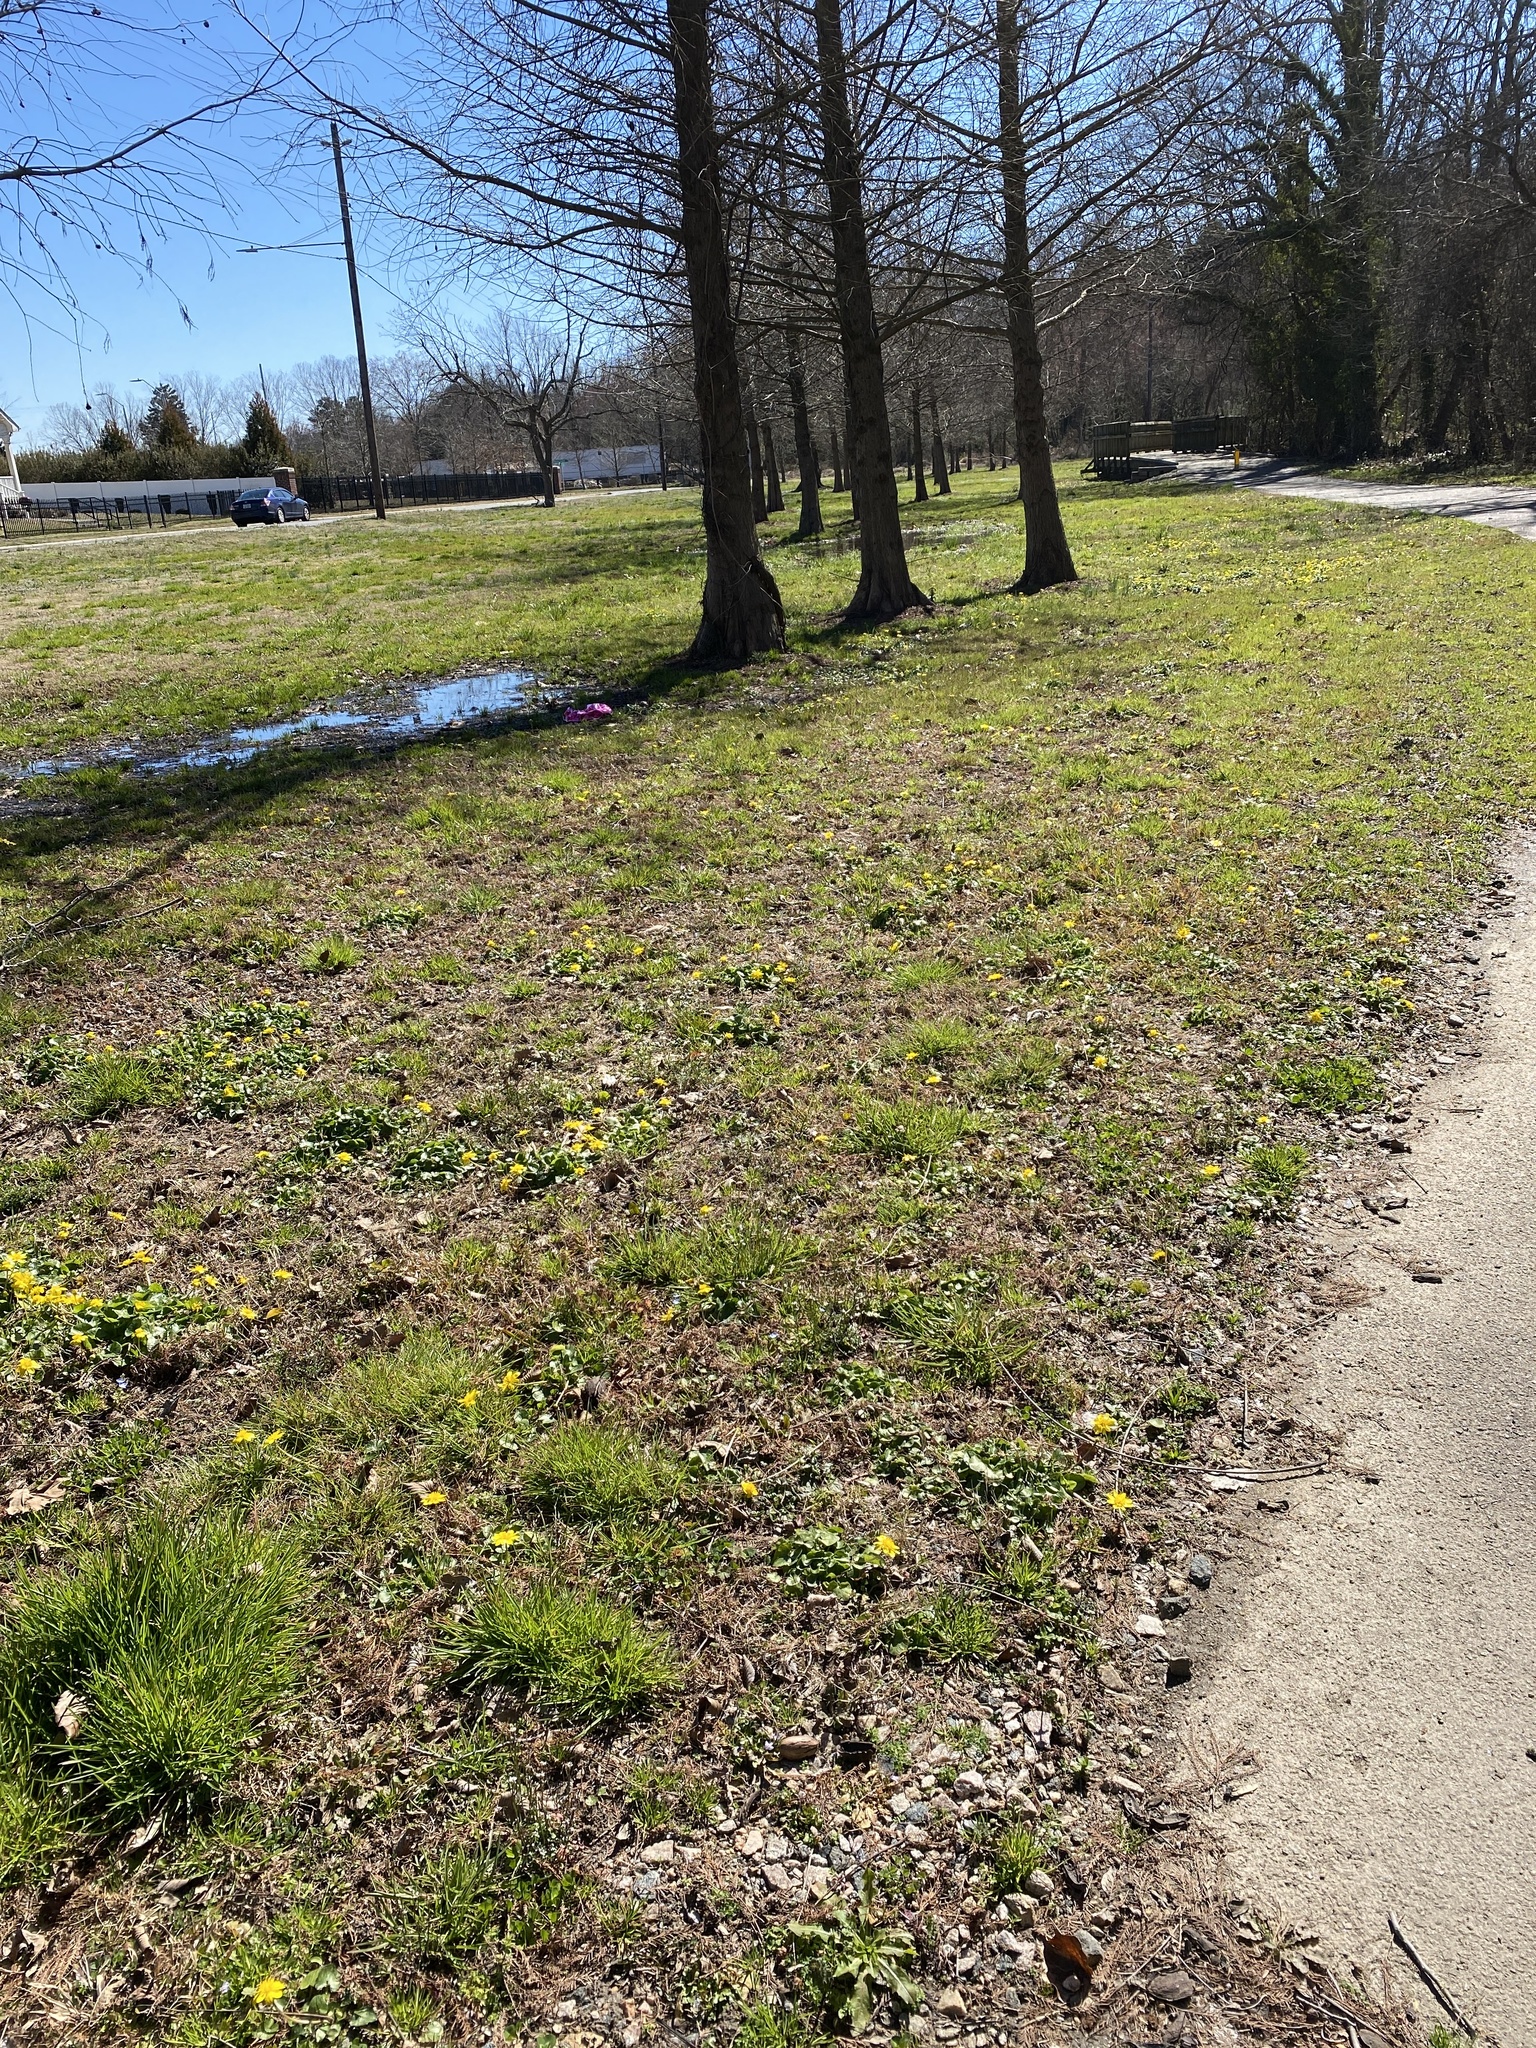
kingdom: Plantae
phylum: Tracheophyta
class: Magnoliopsida
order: Ranunculales
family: Ranunculaceae
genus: Ficaria
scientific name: Ficaria verna
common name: Lesser celandine
